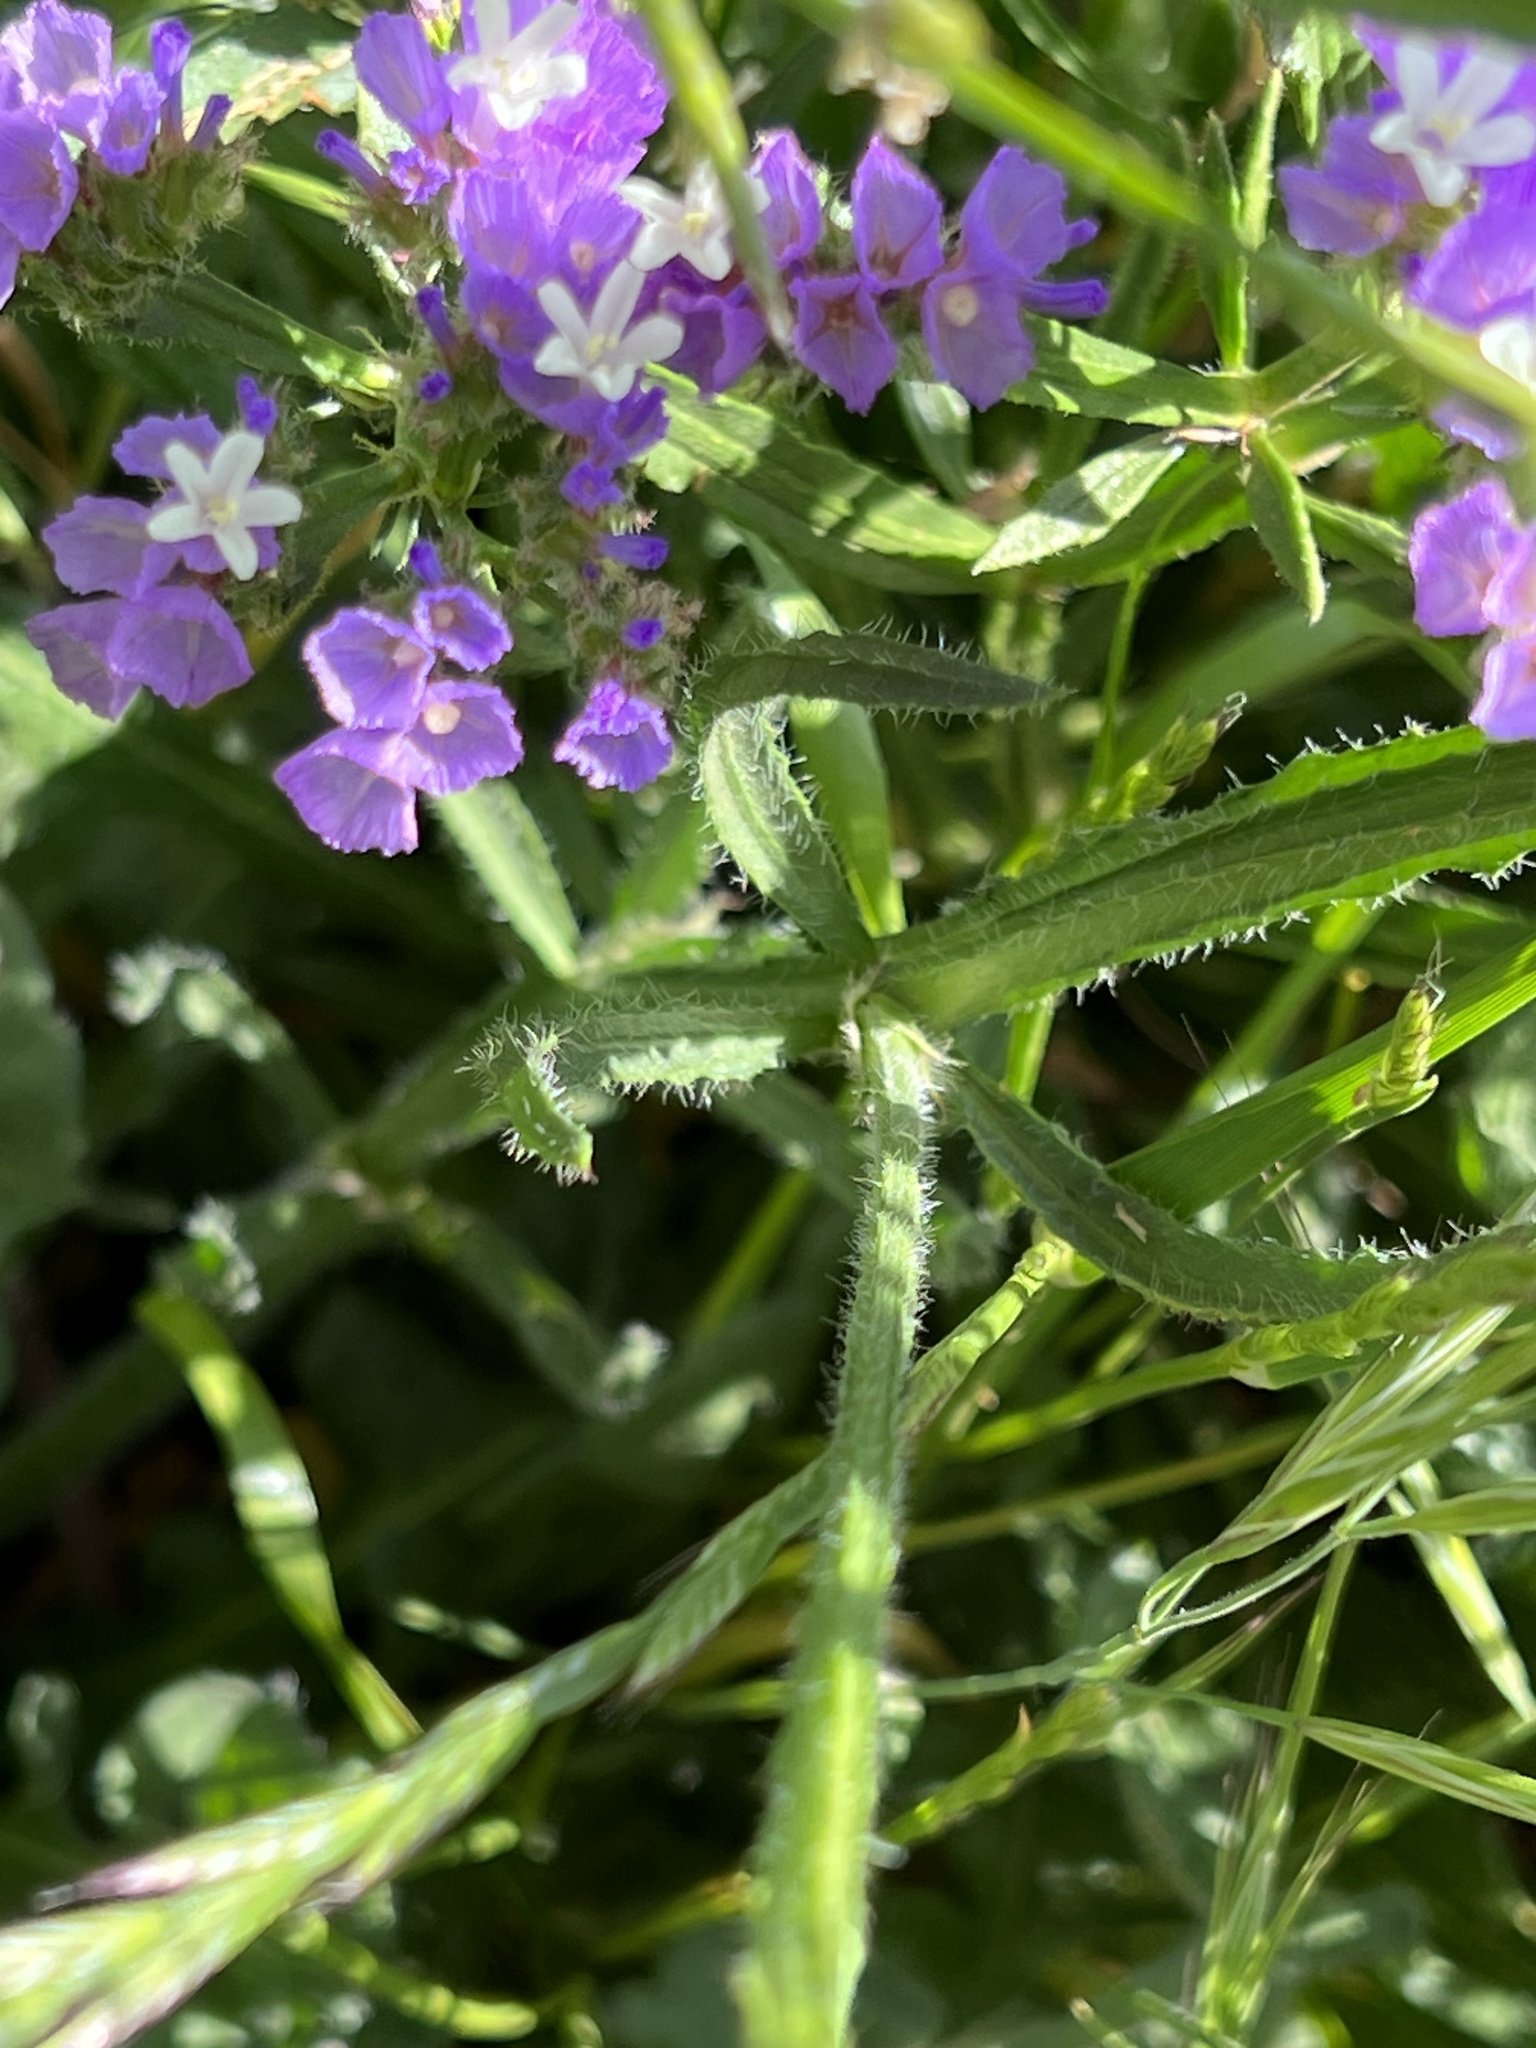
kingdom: Plantae
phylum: Tracheophyta
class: Magnoliopsida
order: Caryophyllales
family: Plumbaginaceae
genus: Limonium
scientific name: Limonium sinuatum
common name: Statice
